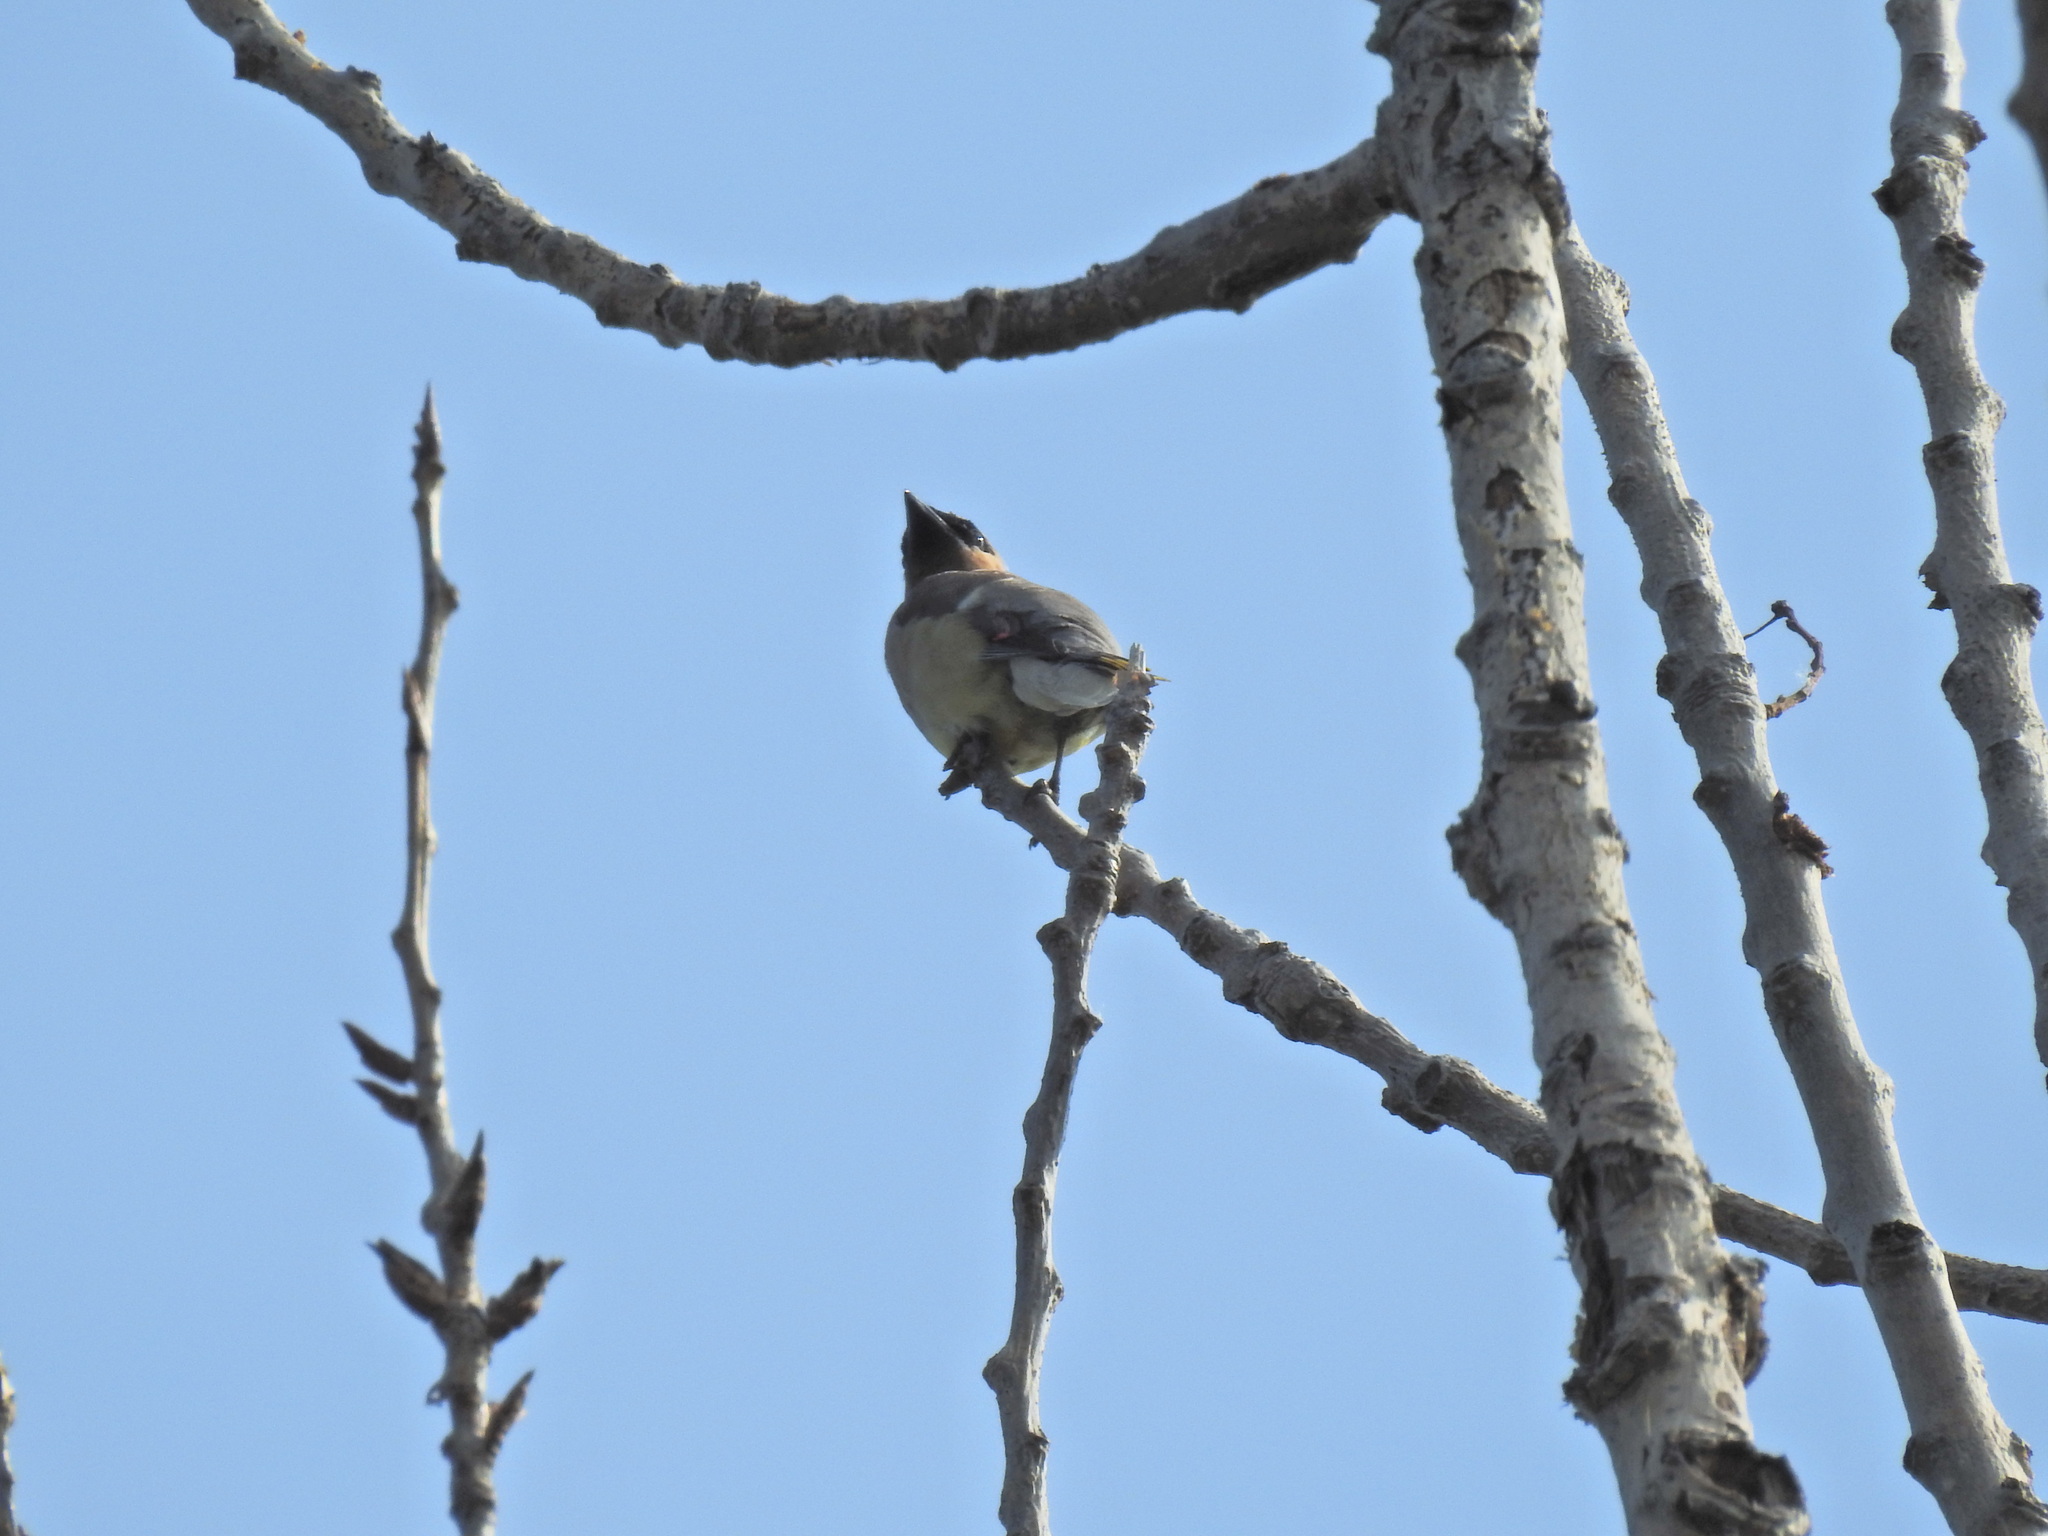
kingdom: Animalia
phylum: Chordata
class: Aves
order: Passeriformes
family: Bombycillidae
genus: Bombycilla
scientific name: Bombycilla cedrorum
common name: Cedar waxwing
